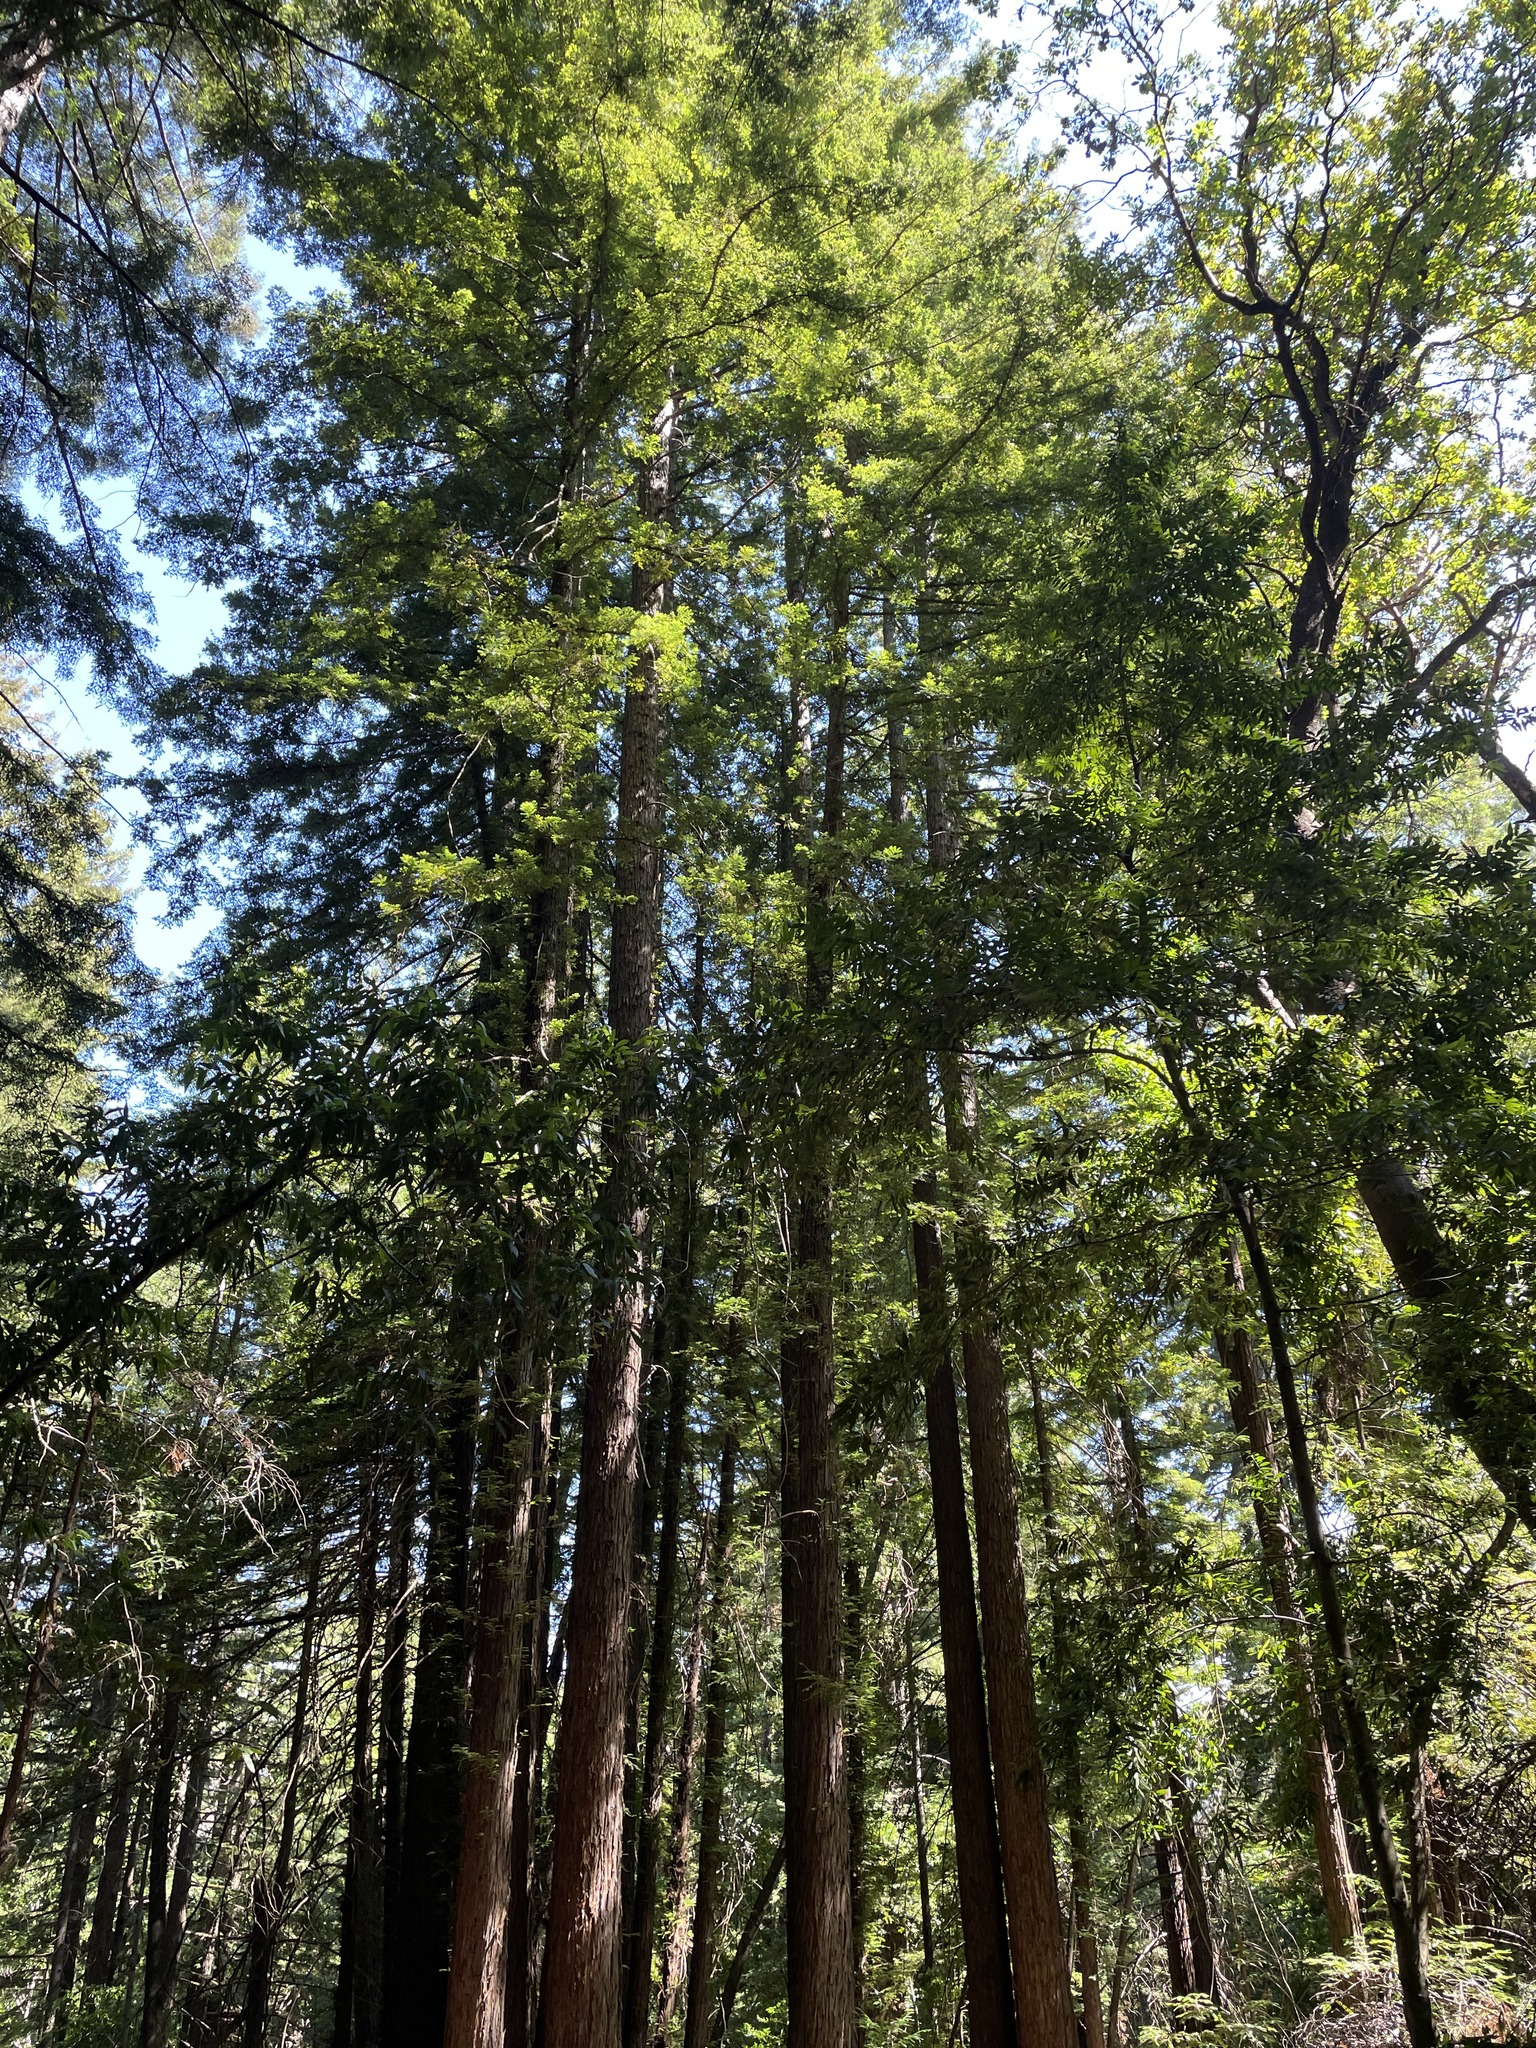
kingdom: Plantae
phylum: Tracheophyta
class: Pinopsida
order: Pinales
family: Cupressaceae
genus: Sequoia
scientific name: Sequoia sempervirens
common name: Coast redwood
